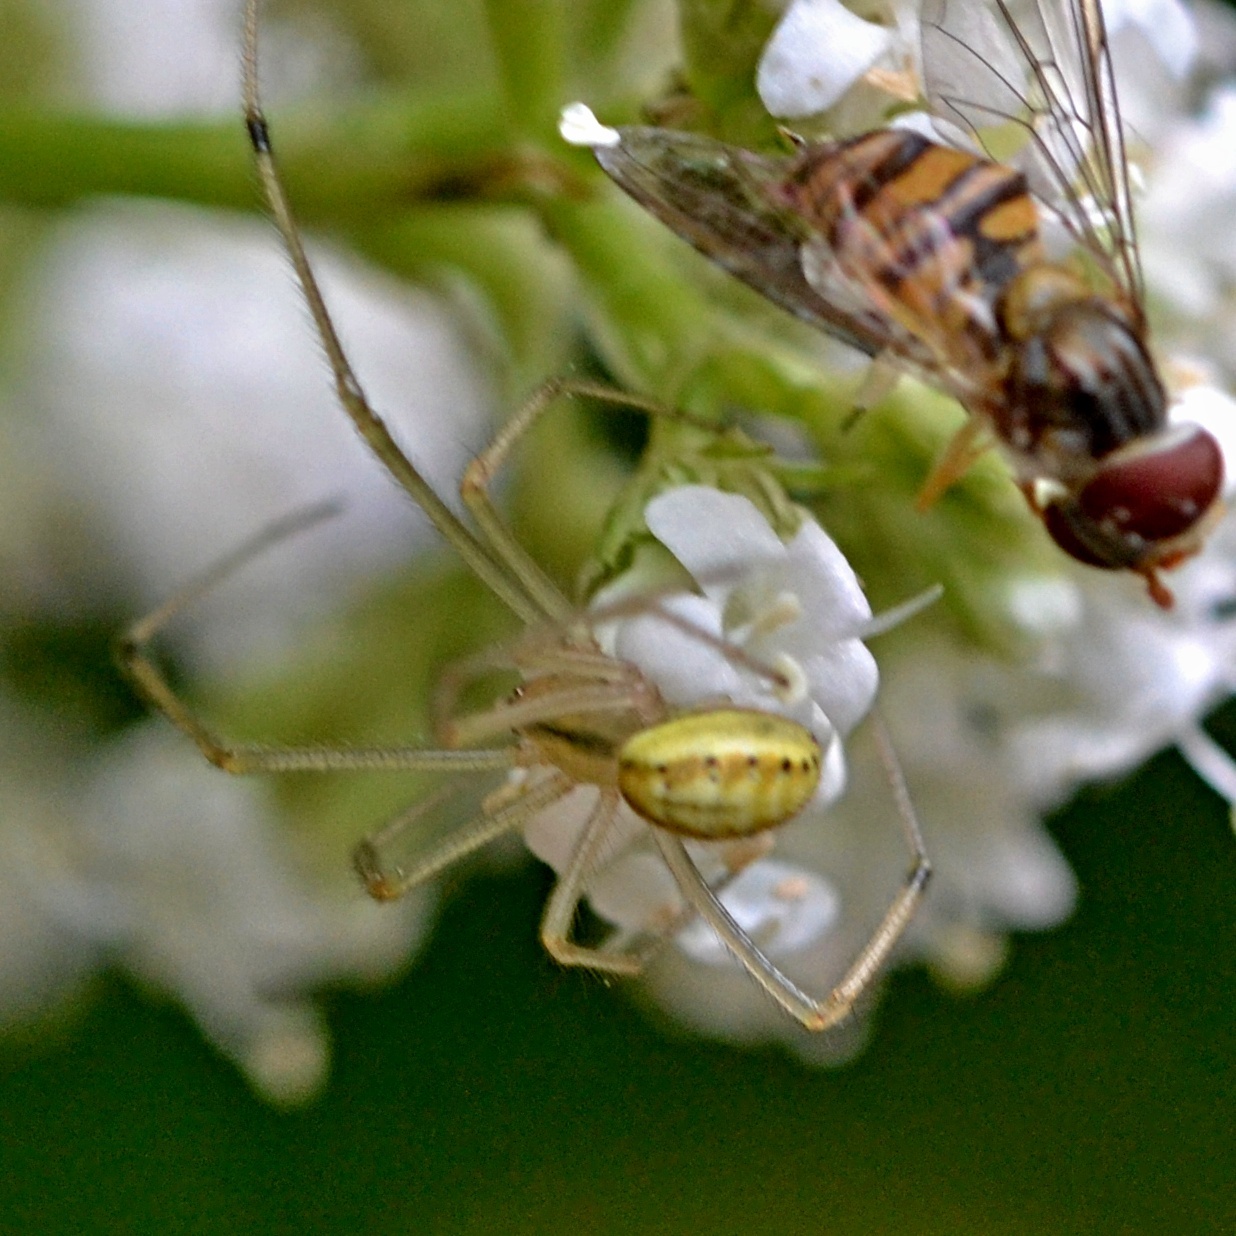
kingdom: Animalia
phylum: Arthropoda
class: Arachnida
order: Araneae
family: Theridiidae
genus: Enoplognatha
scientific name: Enoplognatha ovata
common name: Common candy-striped spider
